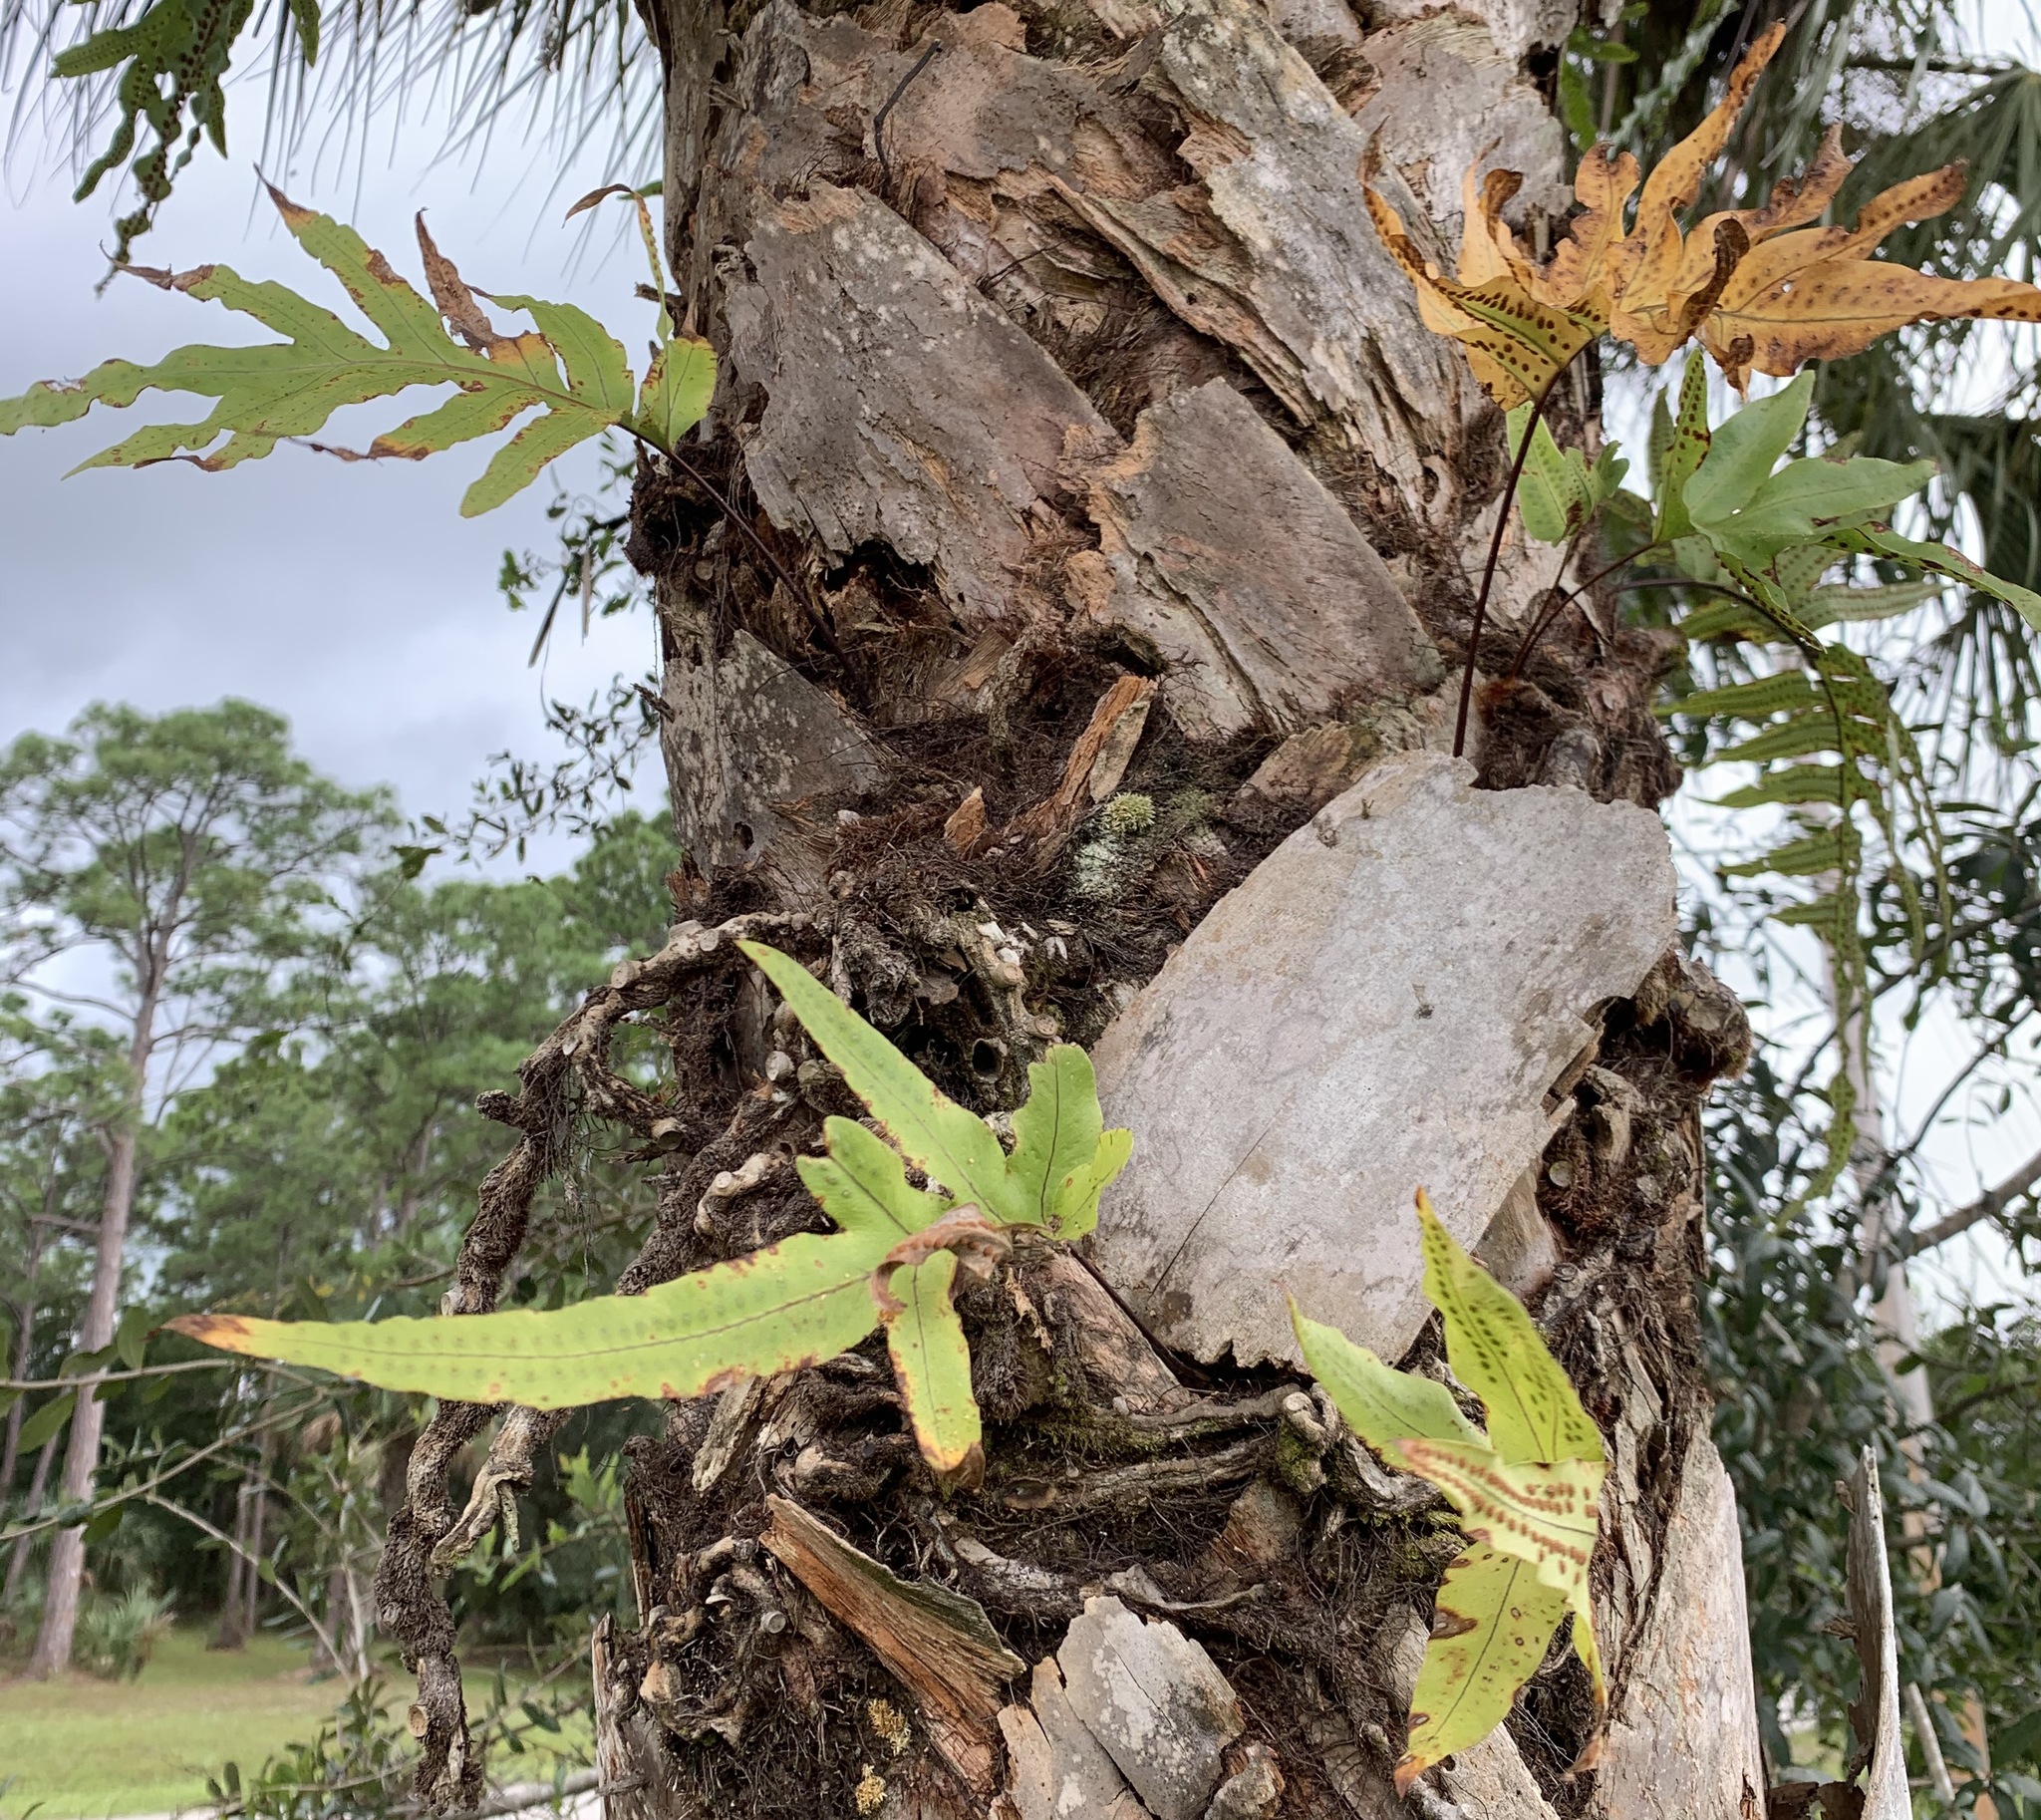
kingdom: Plantae
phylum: Tracheophyta
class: Polypodiopsida
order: Polypodiales
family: Polypodiaceae
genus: Phlebodium
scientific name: Phlebodium aureum
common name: Gold-foot fern
